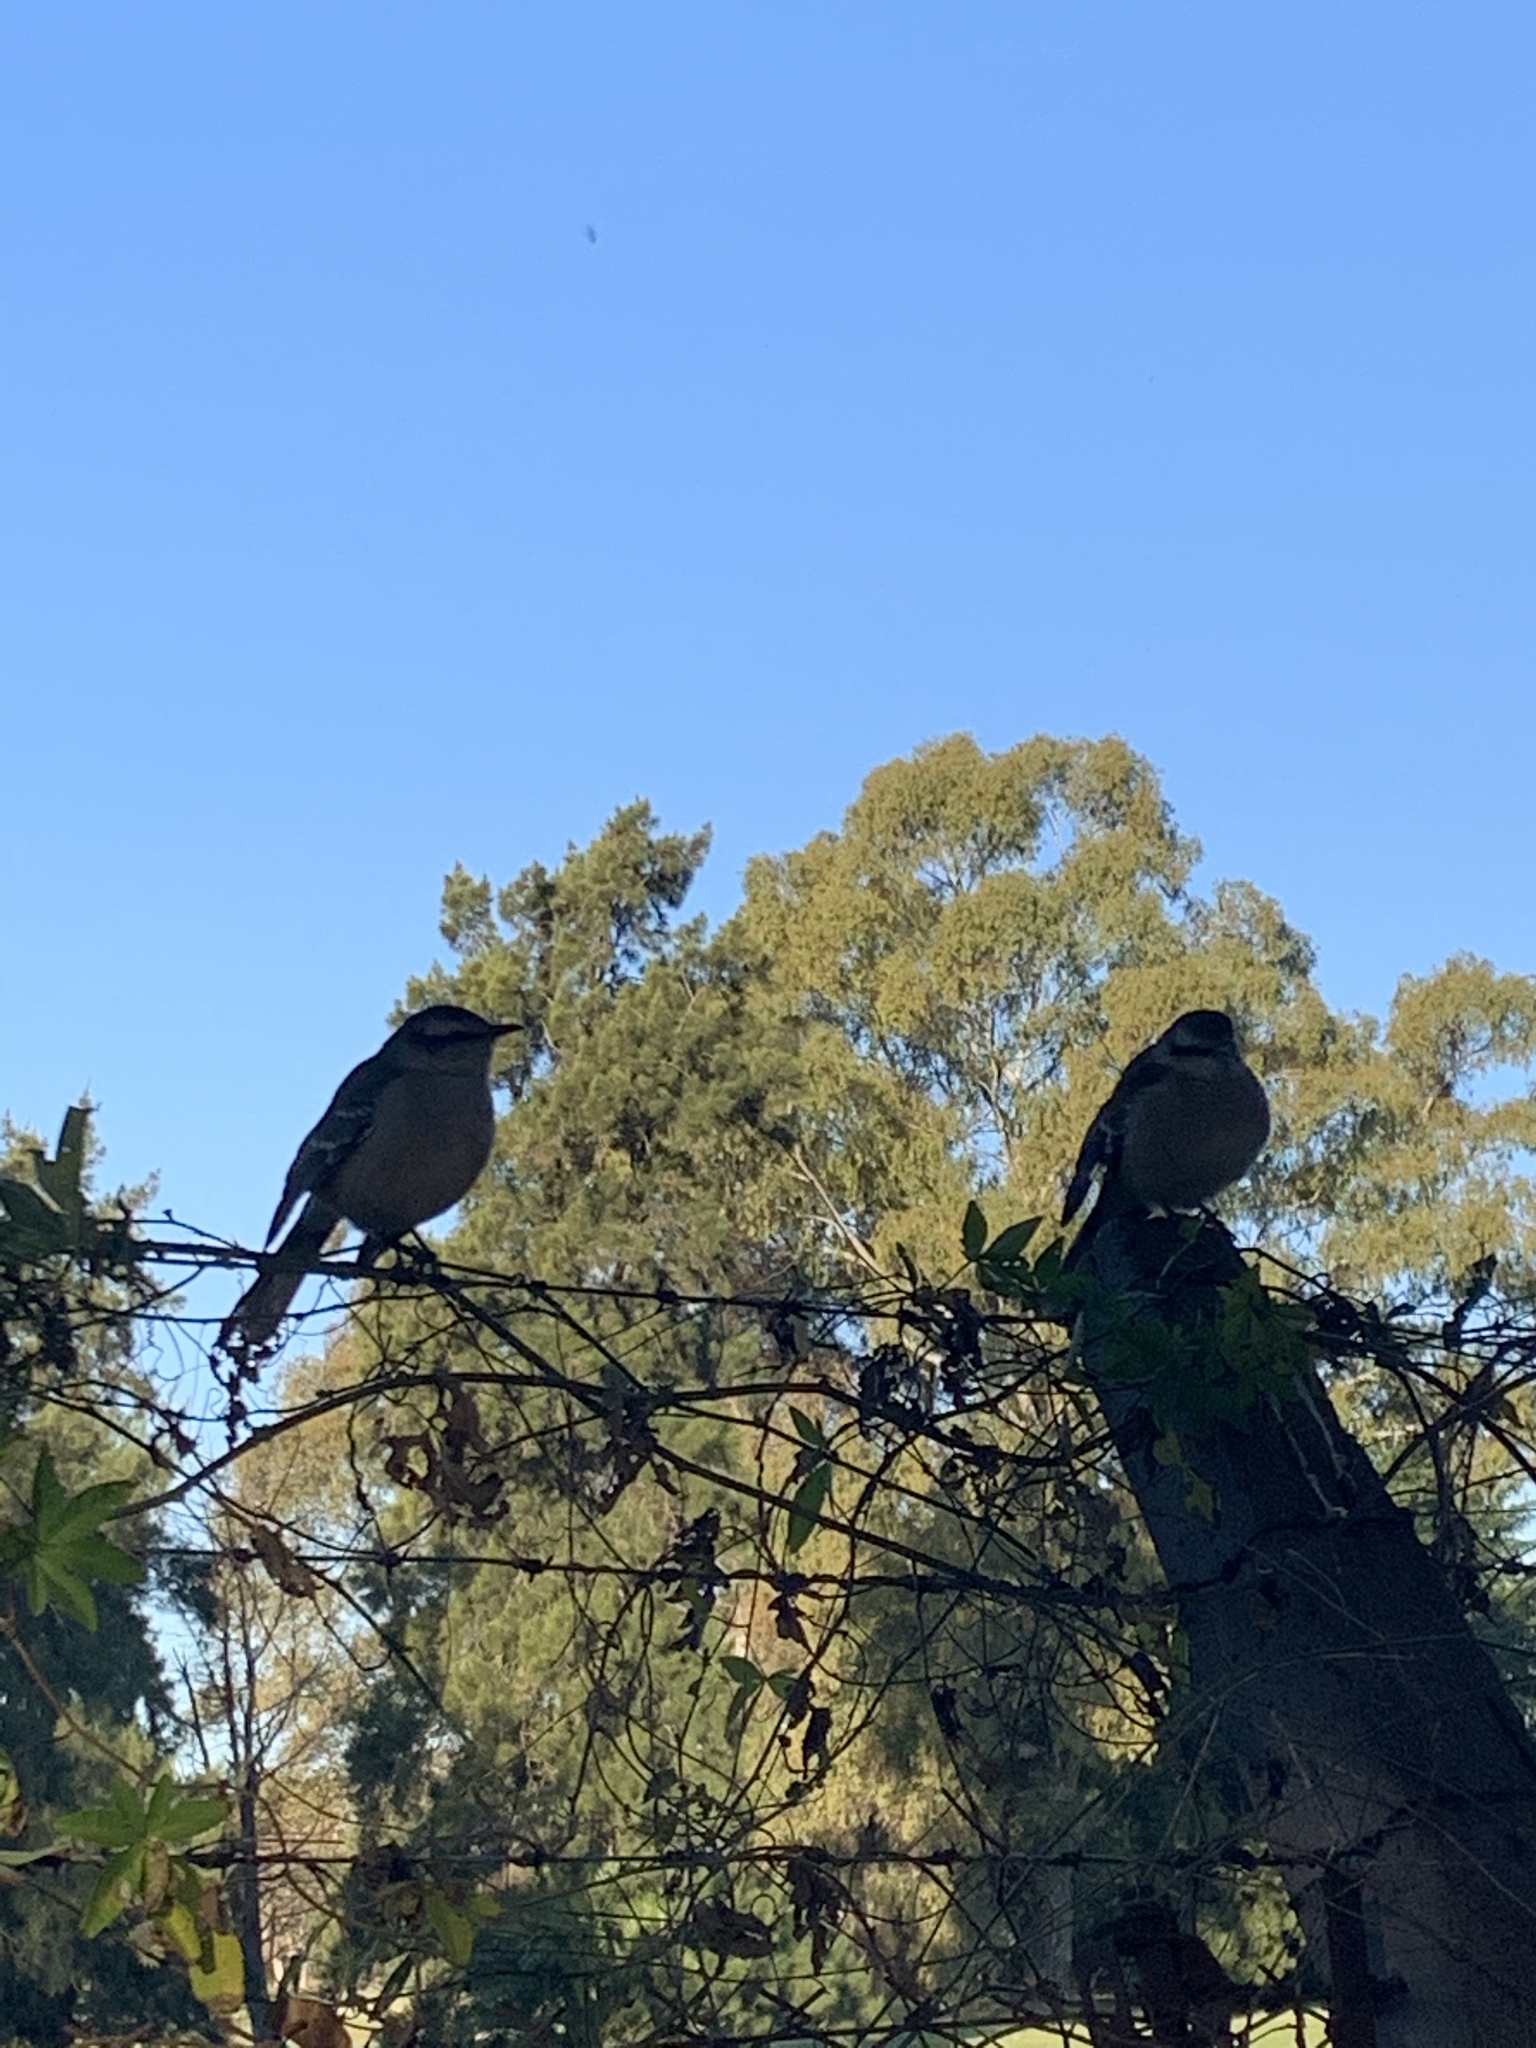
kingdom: Animalia
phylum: Chordata
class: Aves
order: Passeriformes
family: Mimidae
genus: Mimus
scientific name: Mimus saturninus
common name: Chalk-browed mockingbird
